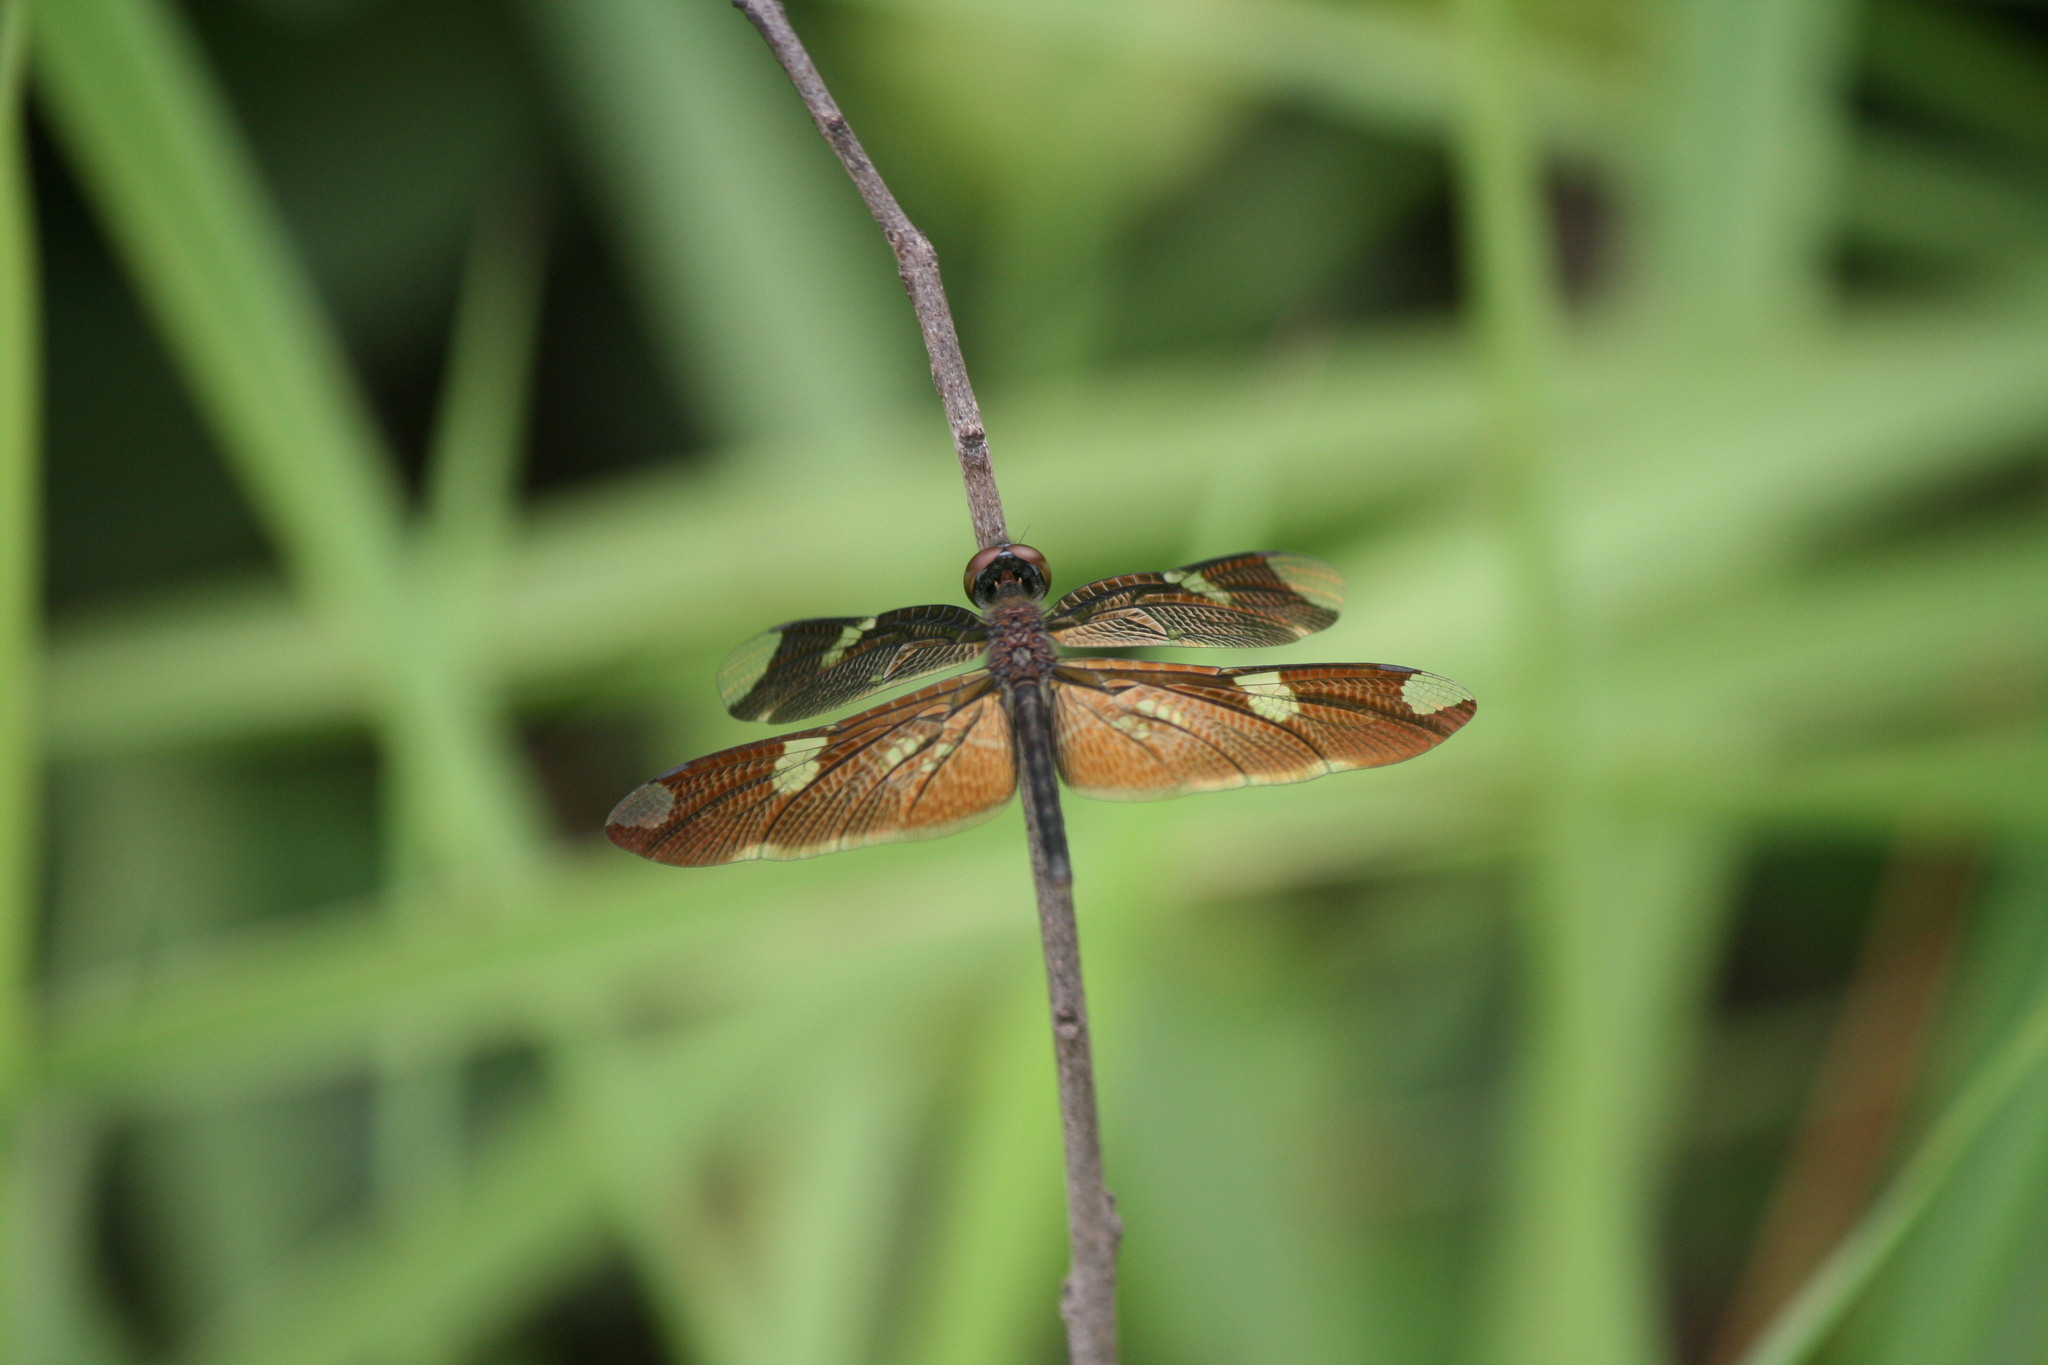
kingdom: Animalia
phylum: Arthropoda
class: Insecta
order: Odonata
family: Libellulidae
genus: Rhyothemis
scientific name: Rhyothemis fenestrina
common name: Skylight flutterer
